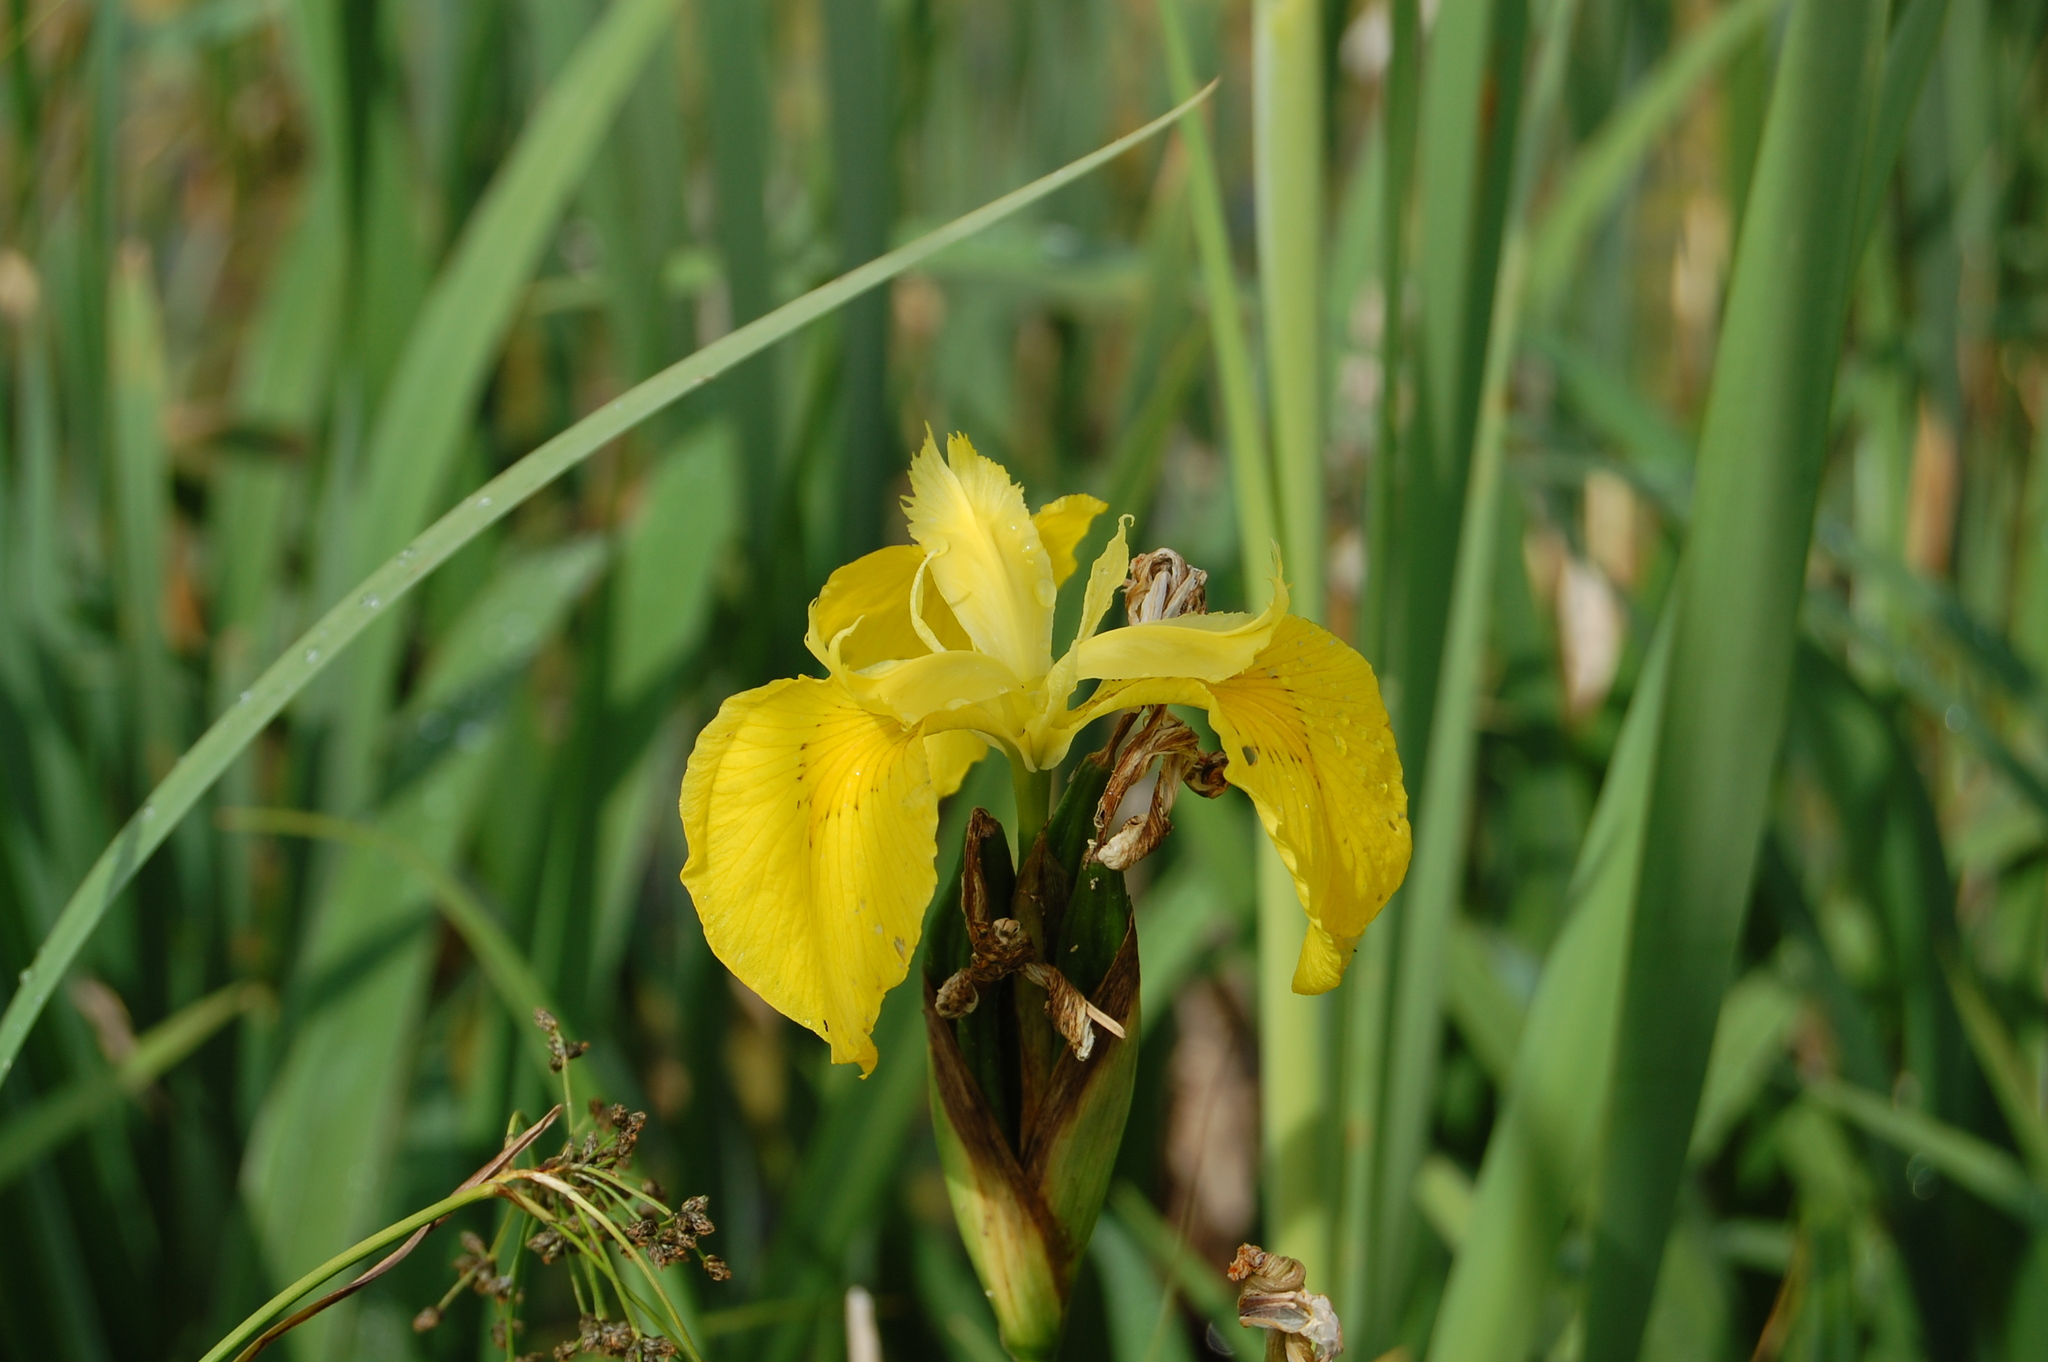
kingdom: Plantae
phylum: Tracheophyta
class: Liliopsida
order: Asparagales
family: Iridaceae
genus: Iris
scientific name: Iris pseudacorus
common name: Yellow flag
